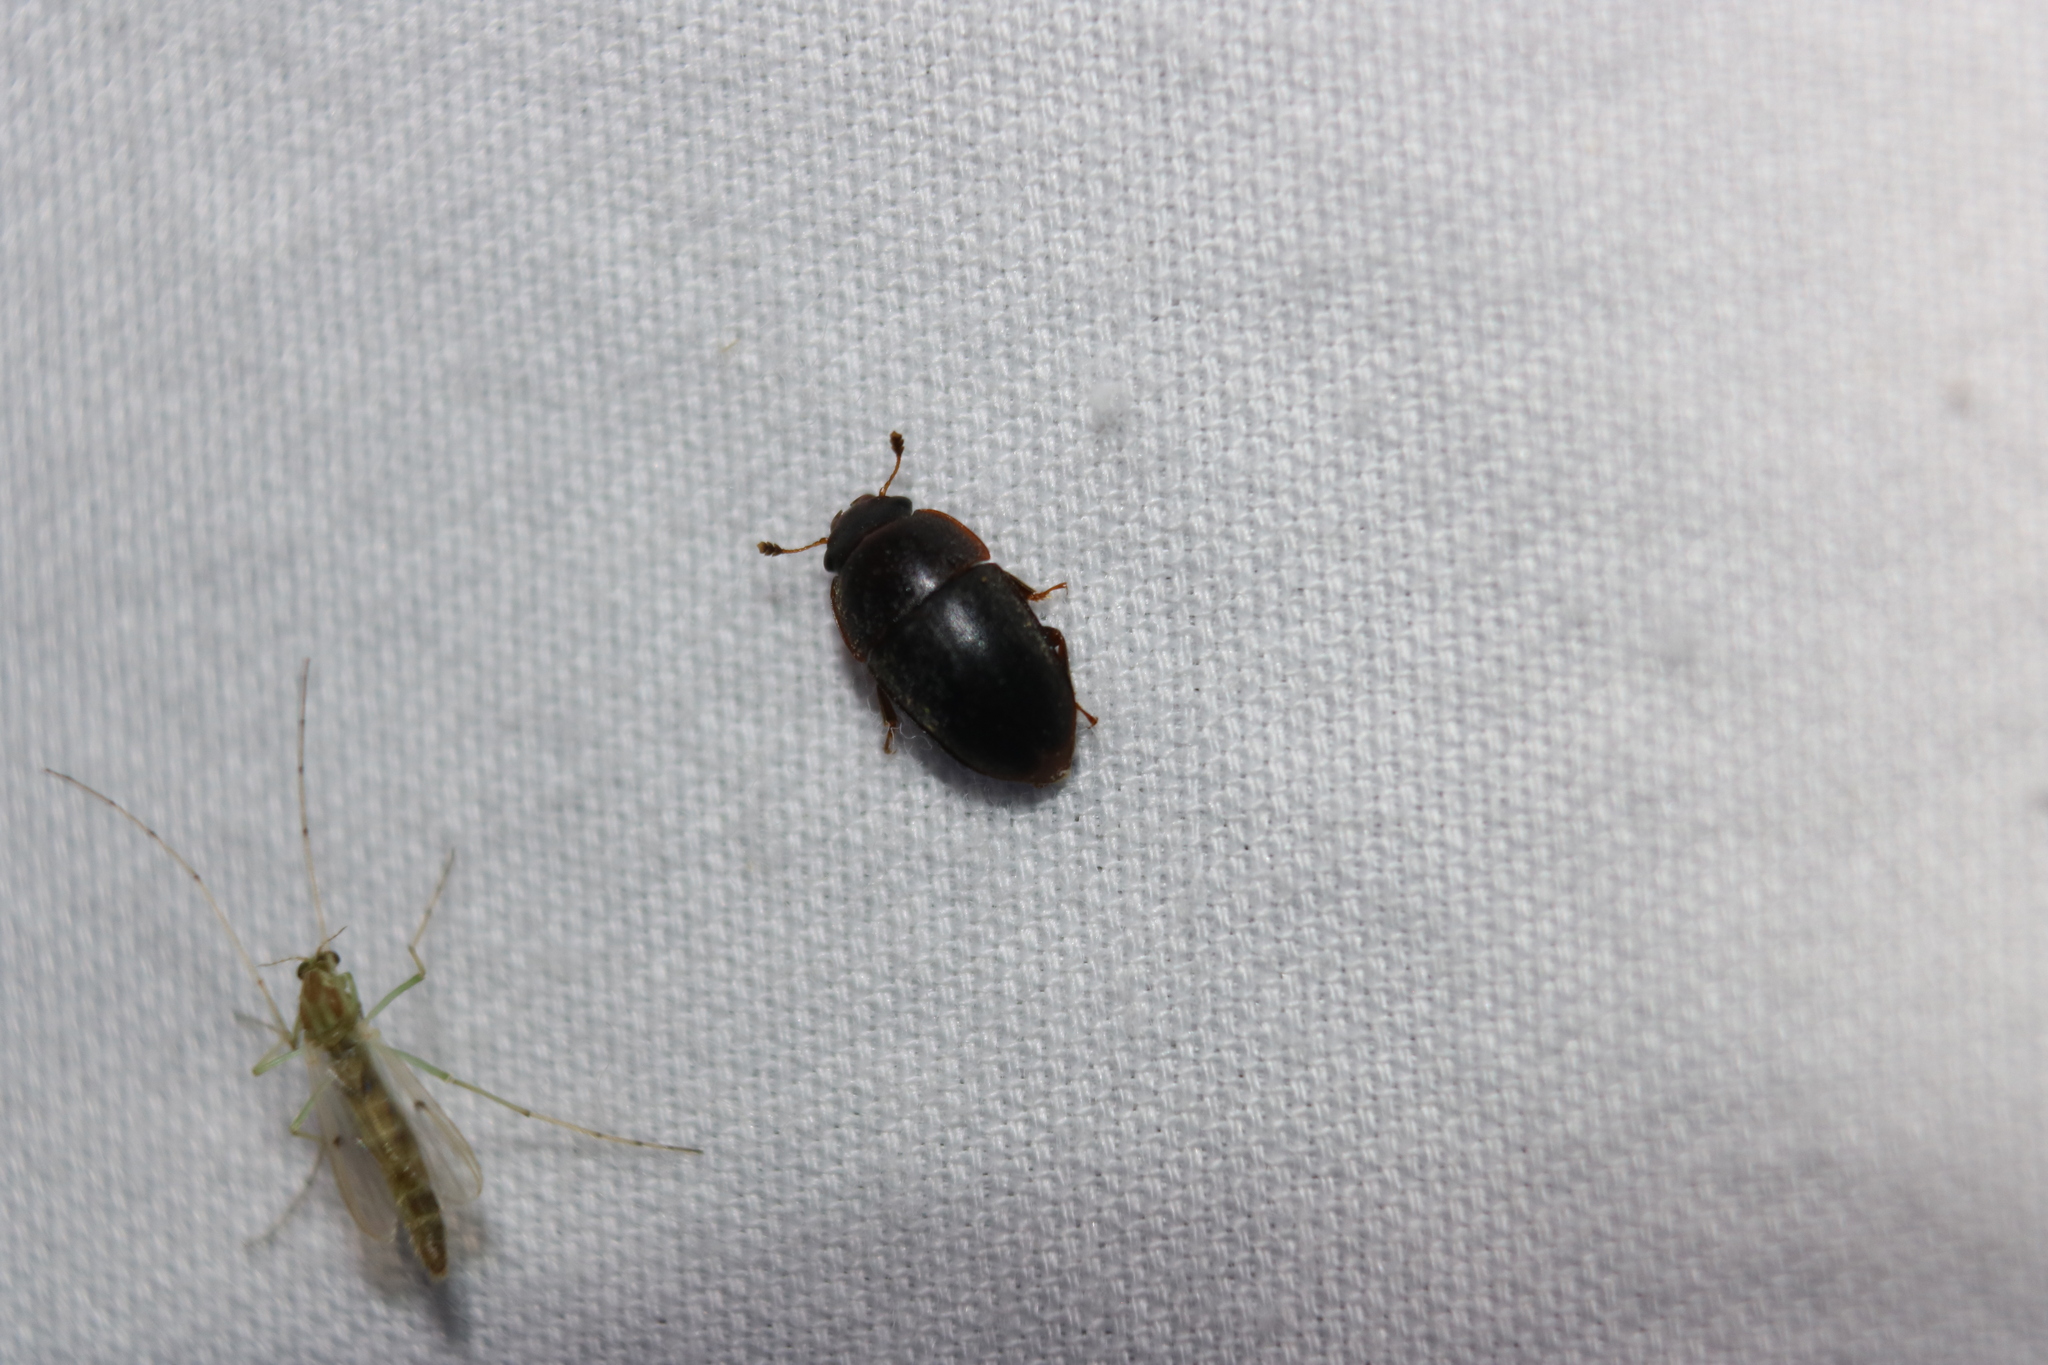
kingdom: Animalia
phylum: Arthropoda
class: Insecta
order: Coleoptera
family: Nitidulidae
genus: Cryptarcha
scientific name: Cryptarcha ampla
